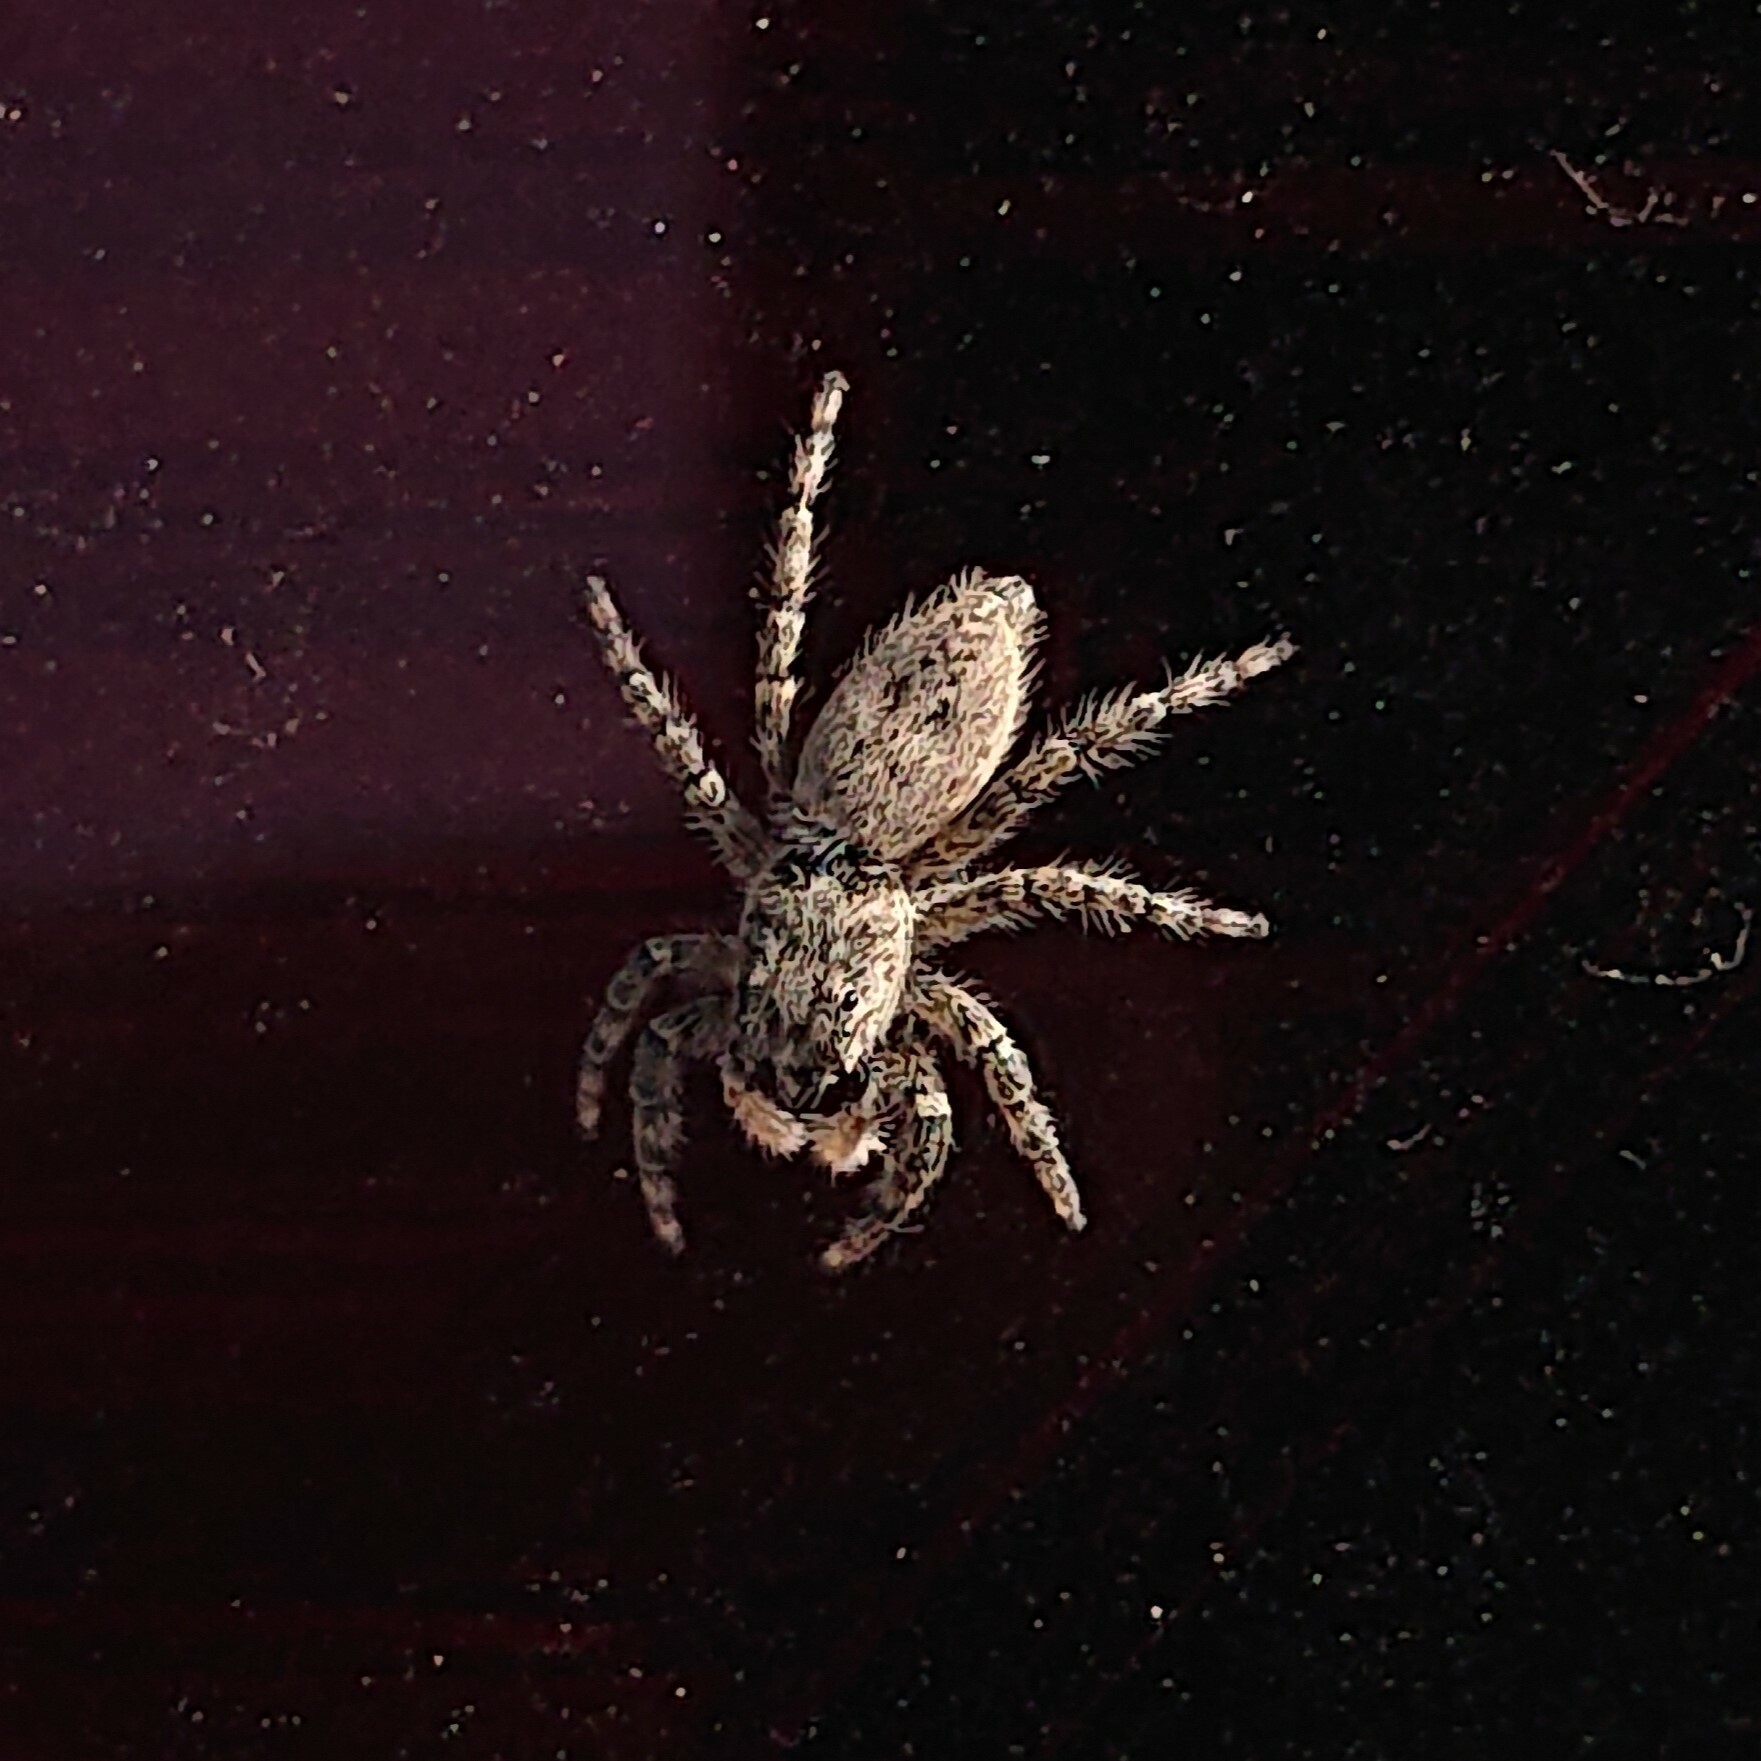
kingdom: Animalia
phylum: Arthropoda
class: Arachnida
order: Araneae
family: Salticidae
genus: Menemerus
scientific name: Menemerus taeniatus
